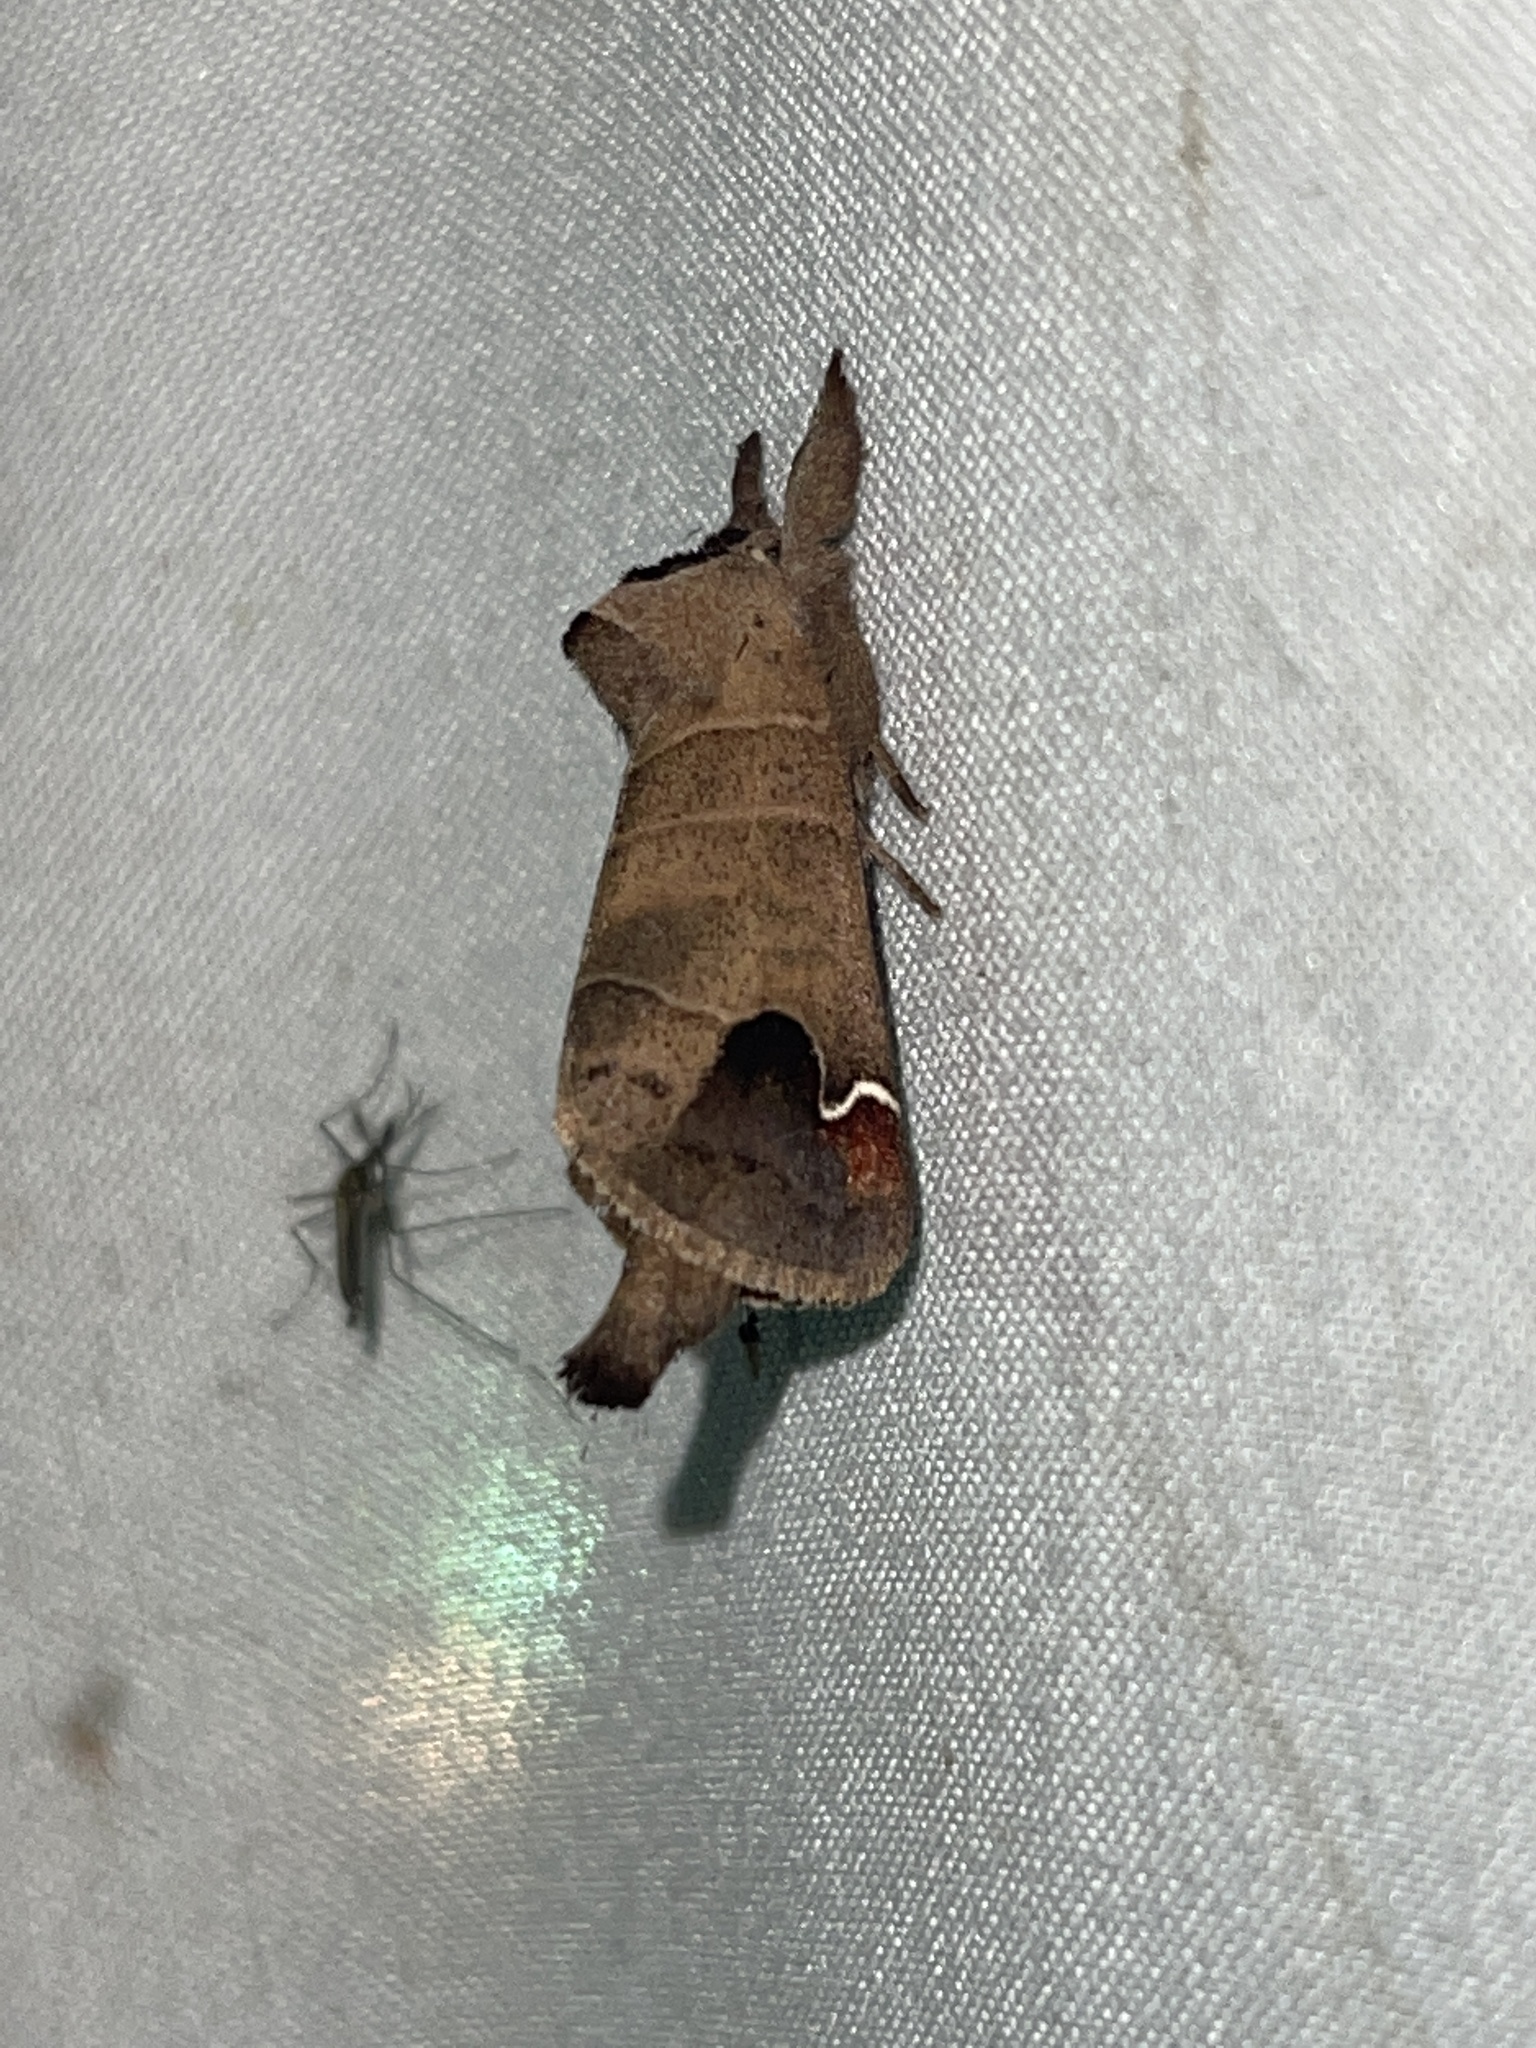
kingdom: Animalia
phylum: Arthropoda
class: Insecta
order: Lepidoptera
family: Notodontidae
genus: Clostera
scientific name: Clostera albosigma
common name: Sigmoid prominent
